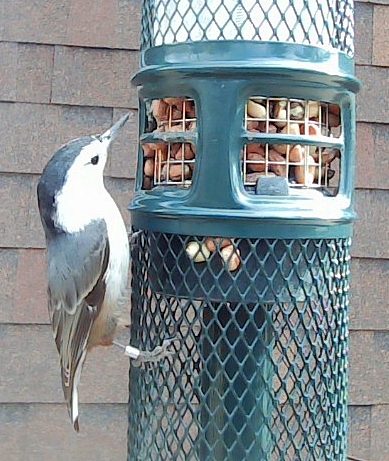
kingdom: Animalia
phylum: Chordata
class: Aves
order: Passeriformes
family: Sittidae
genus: Sitta
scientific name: Sitta carolinensis
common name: White-breasted nuthatch
